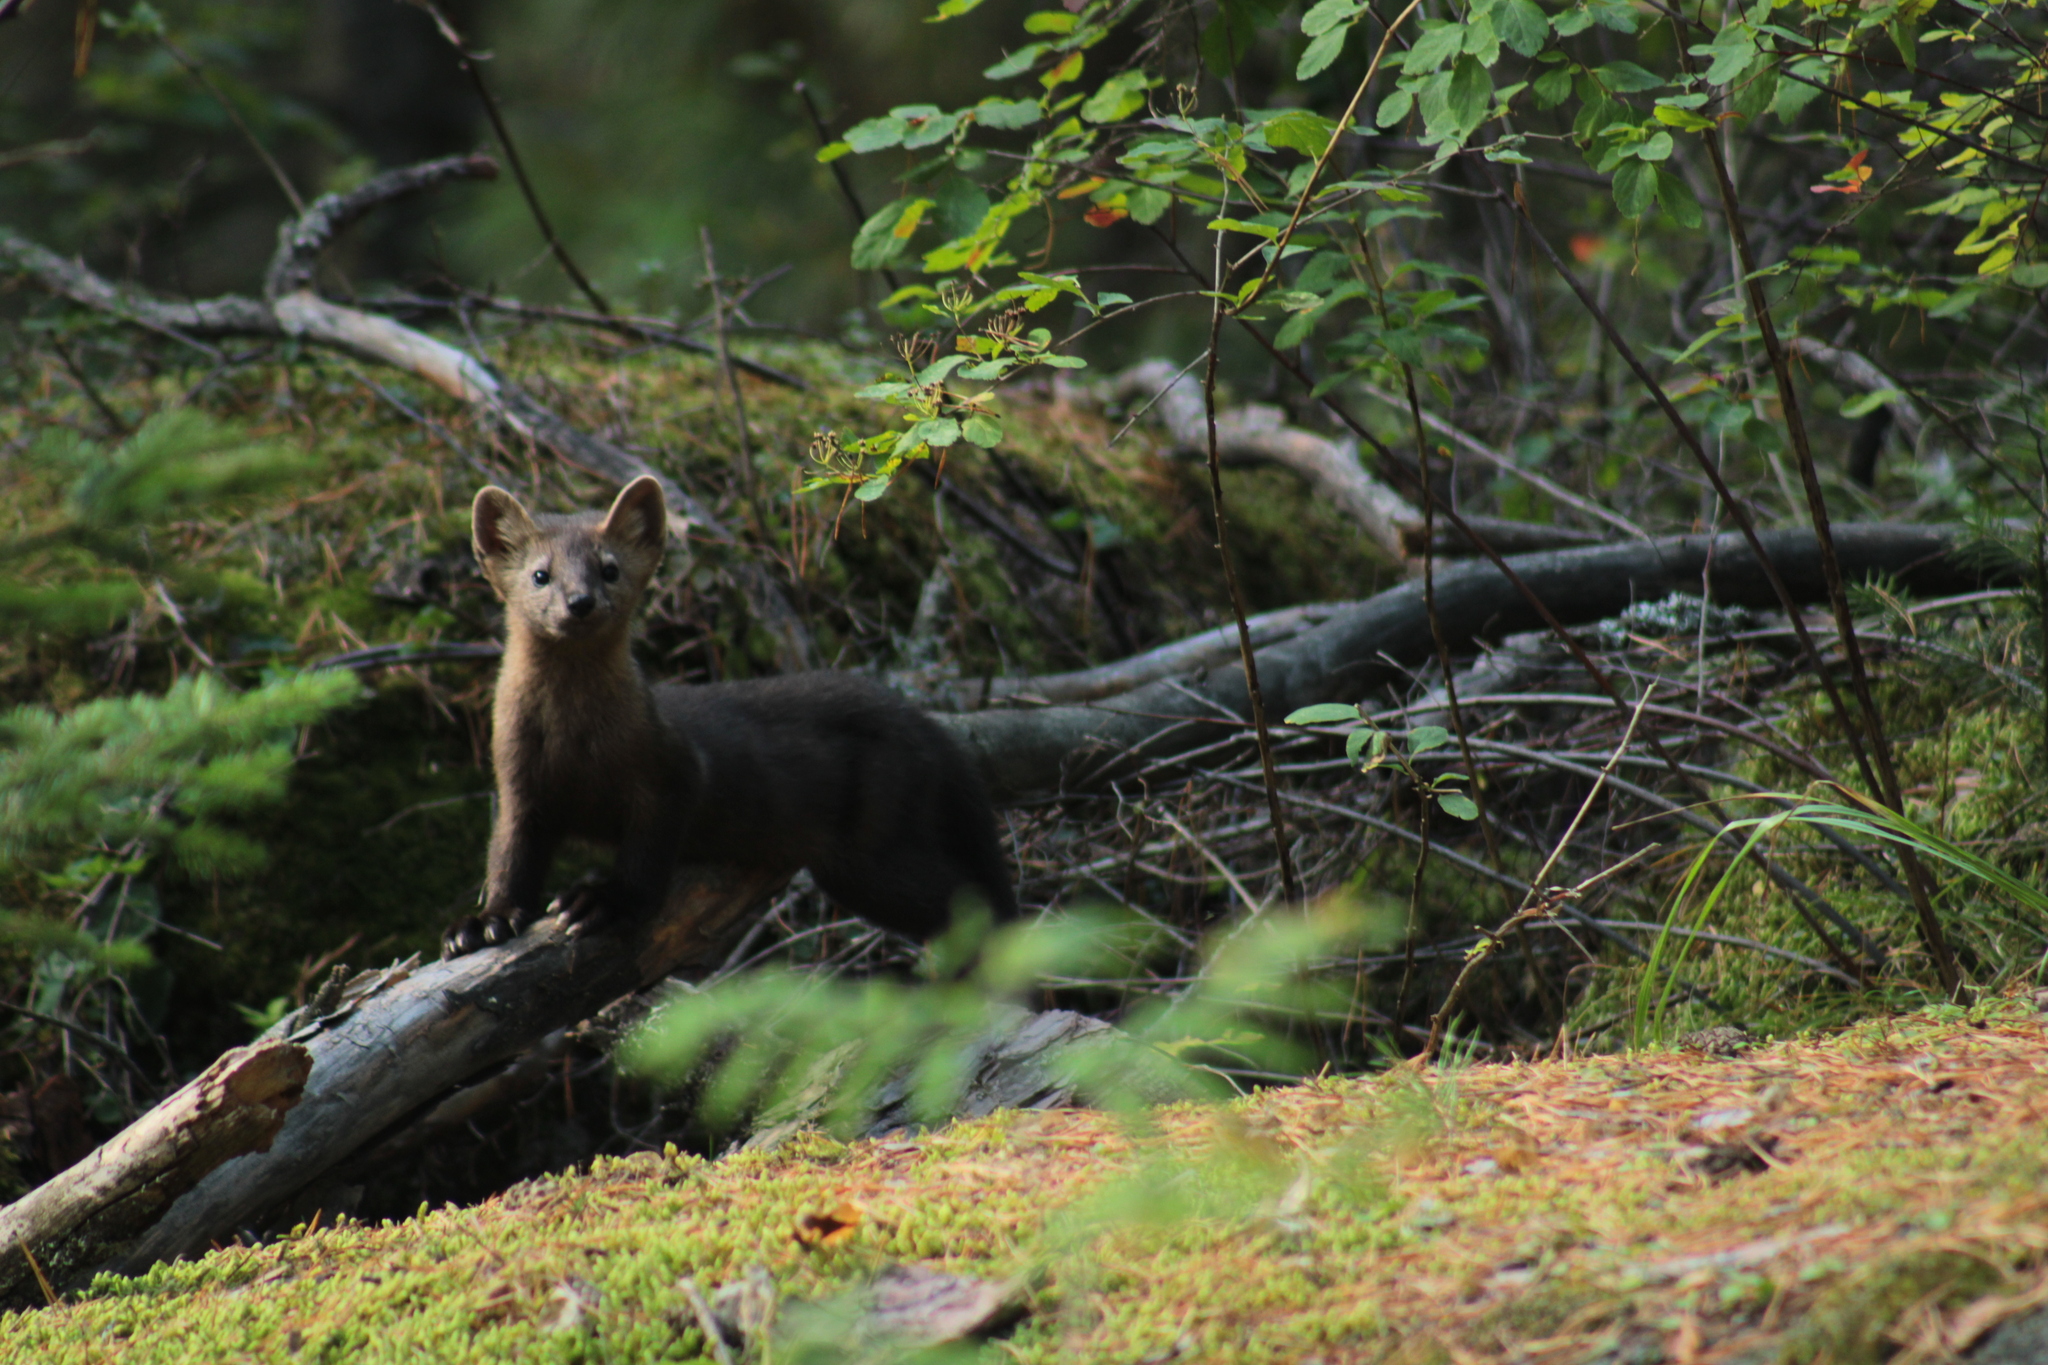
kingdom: Animalia
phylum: Chordata
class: Mammalia
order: Carnivora
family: Mustelidae
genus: Martes
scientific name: Martes zibellina
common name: Sable
